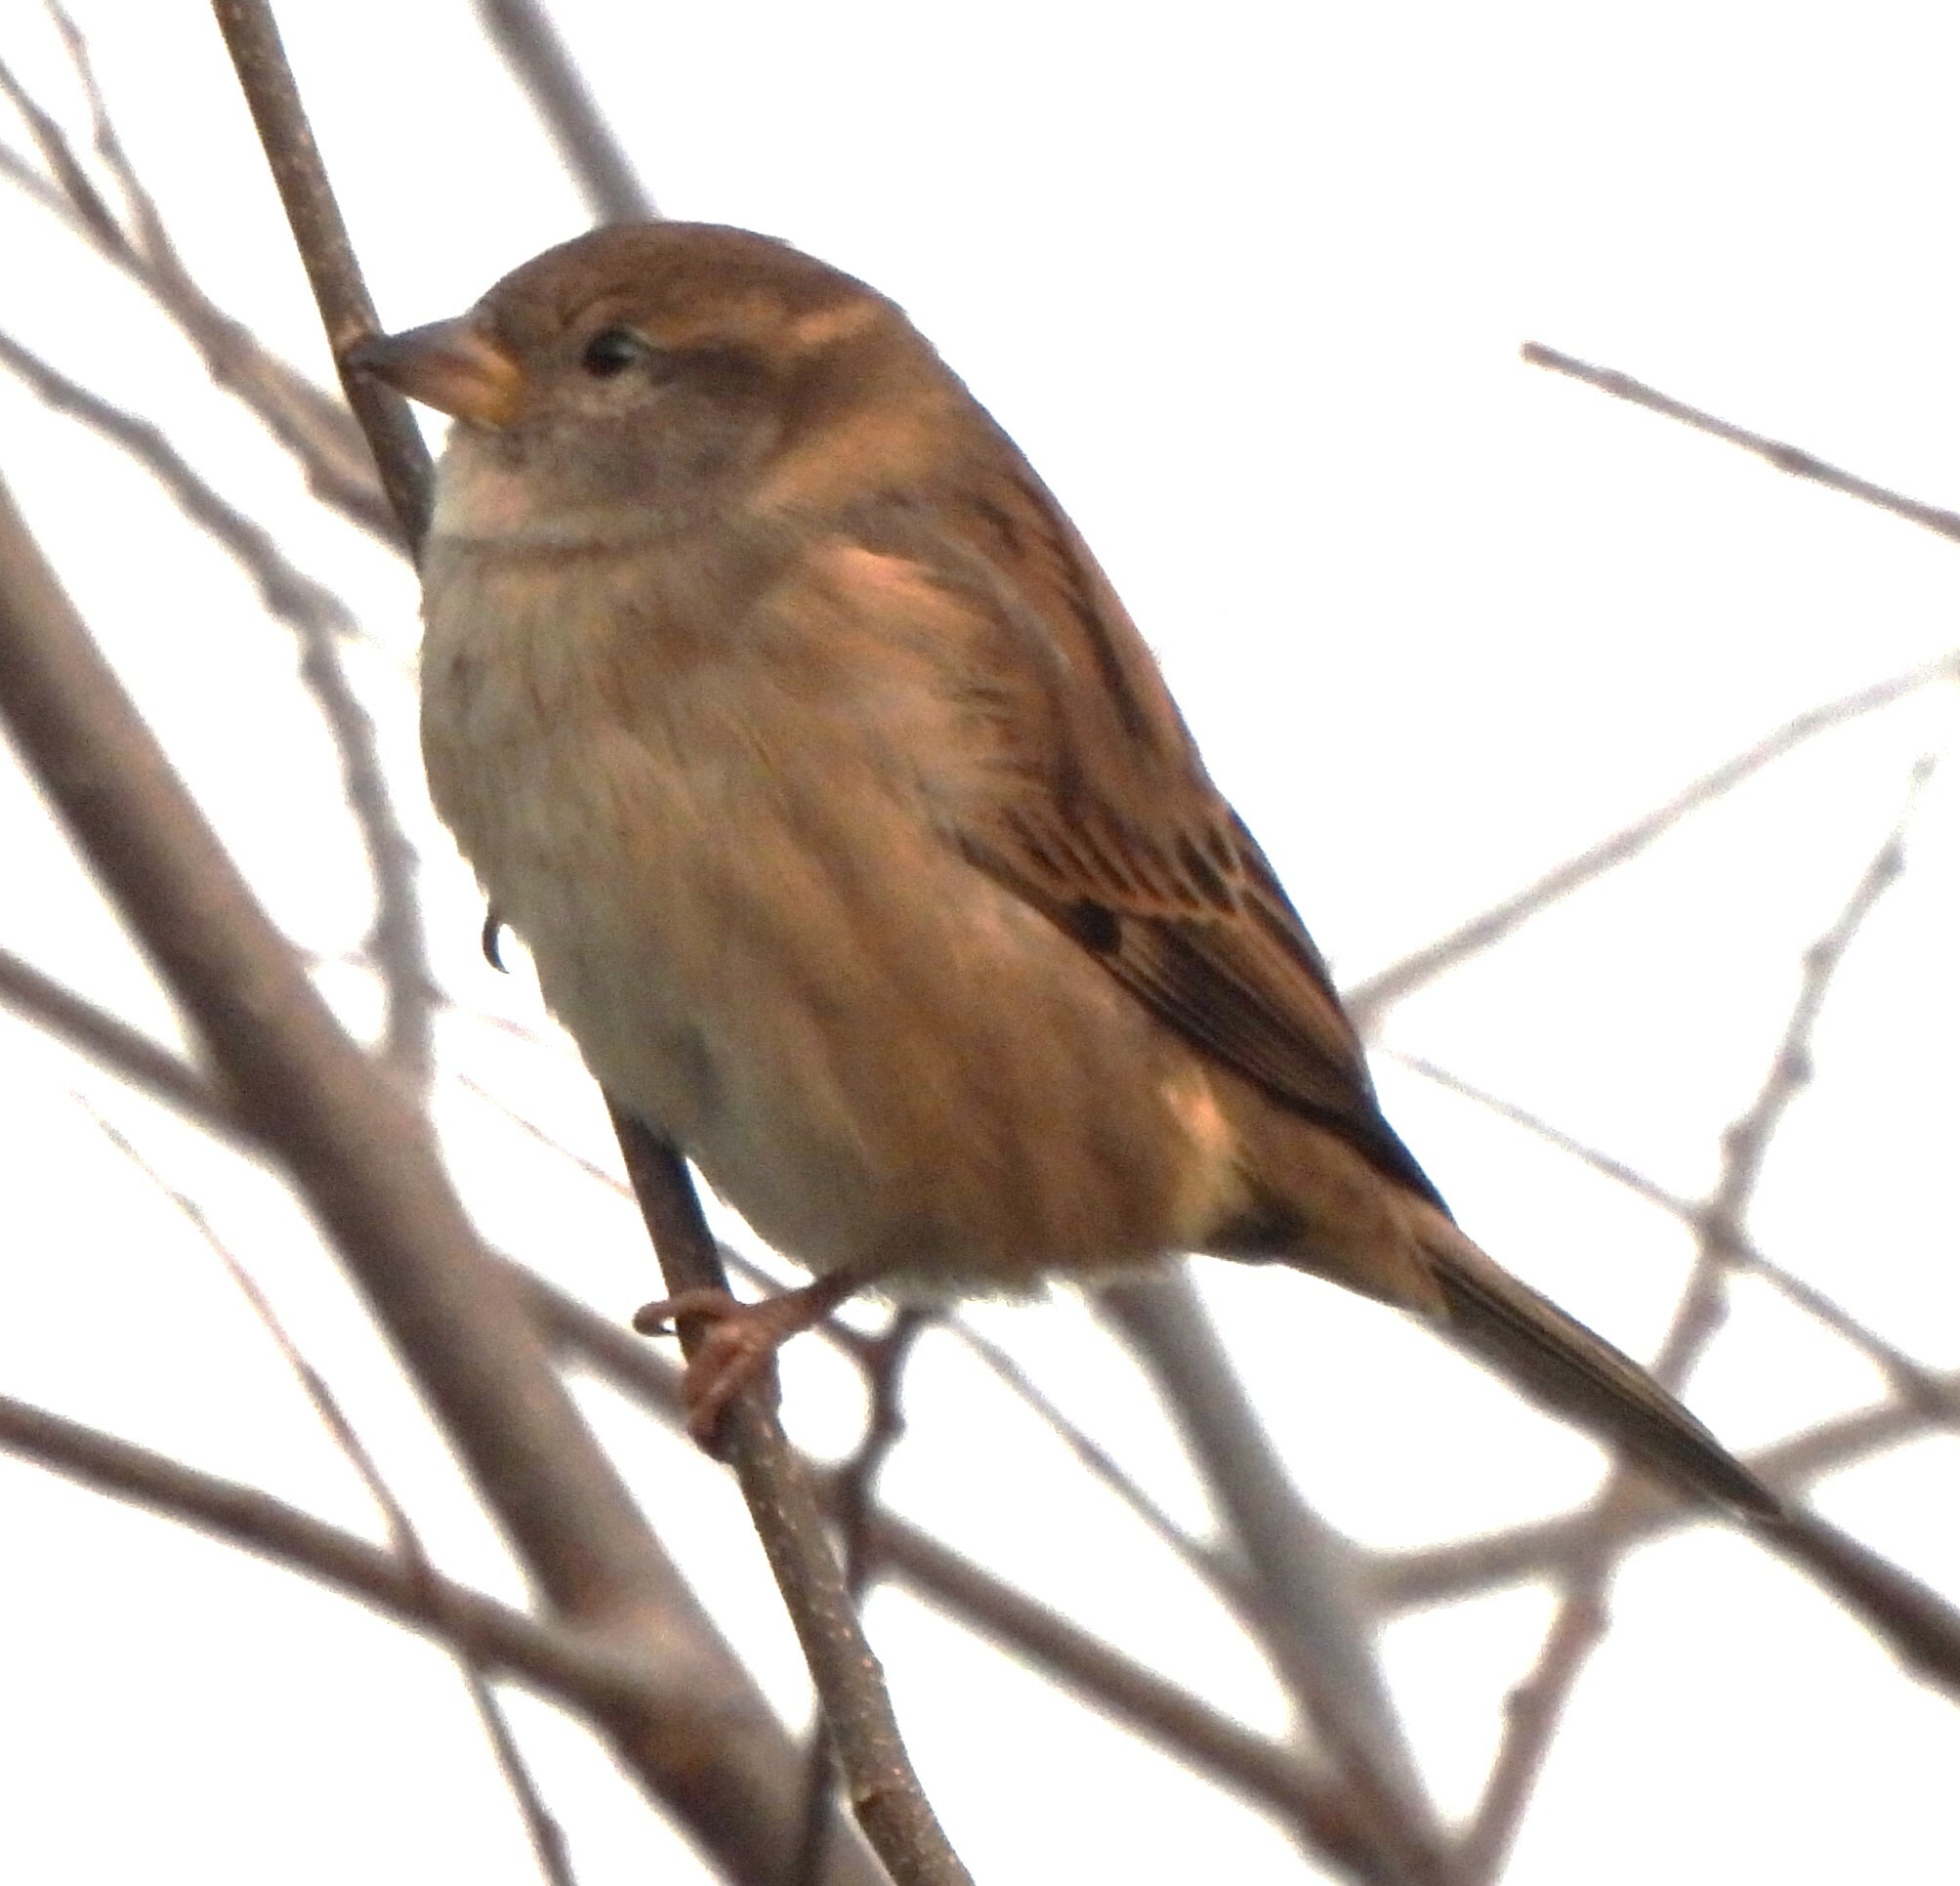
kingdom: Animalia
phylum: Chordata
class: Aves
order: Passeriformes
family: Passeridae
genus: Passer
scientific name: Passer domesticus
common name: House sparrow
